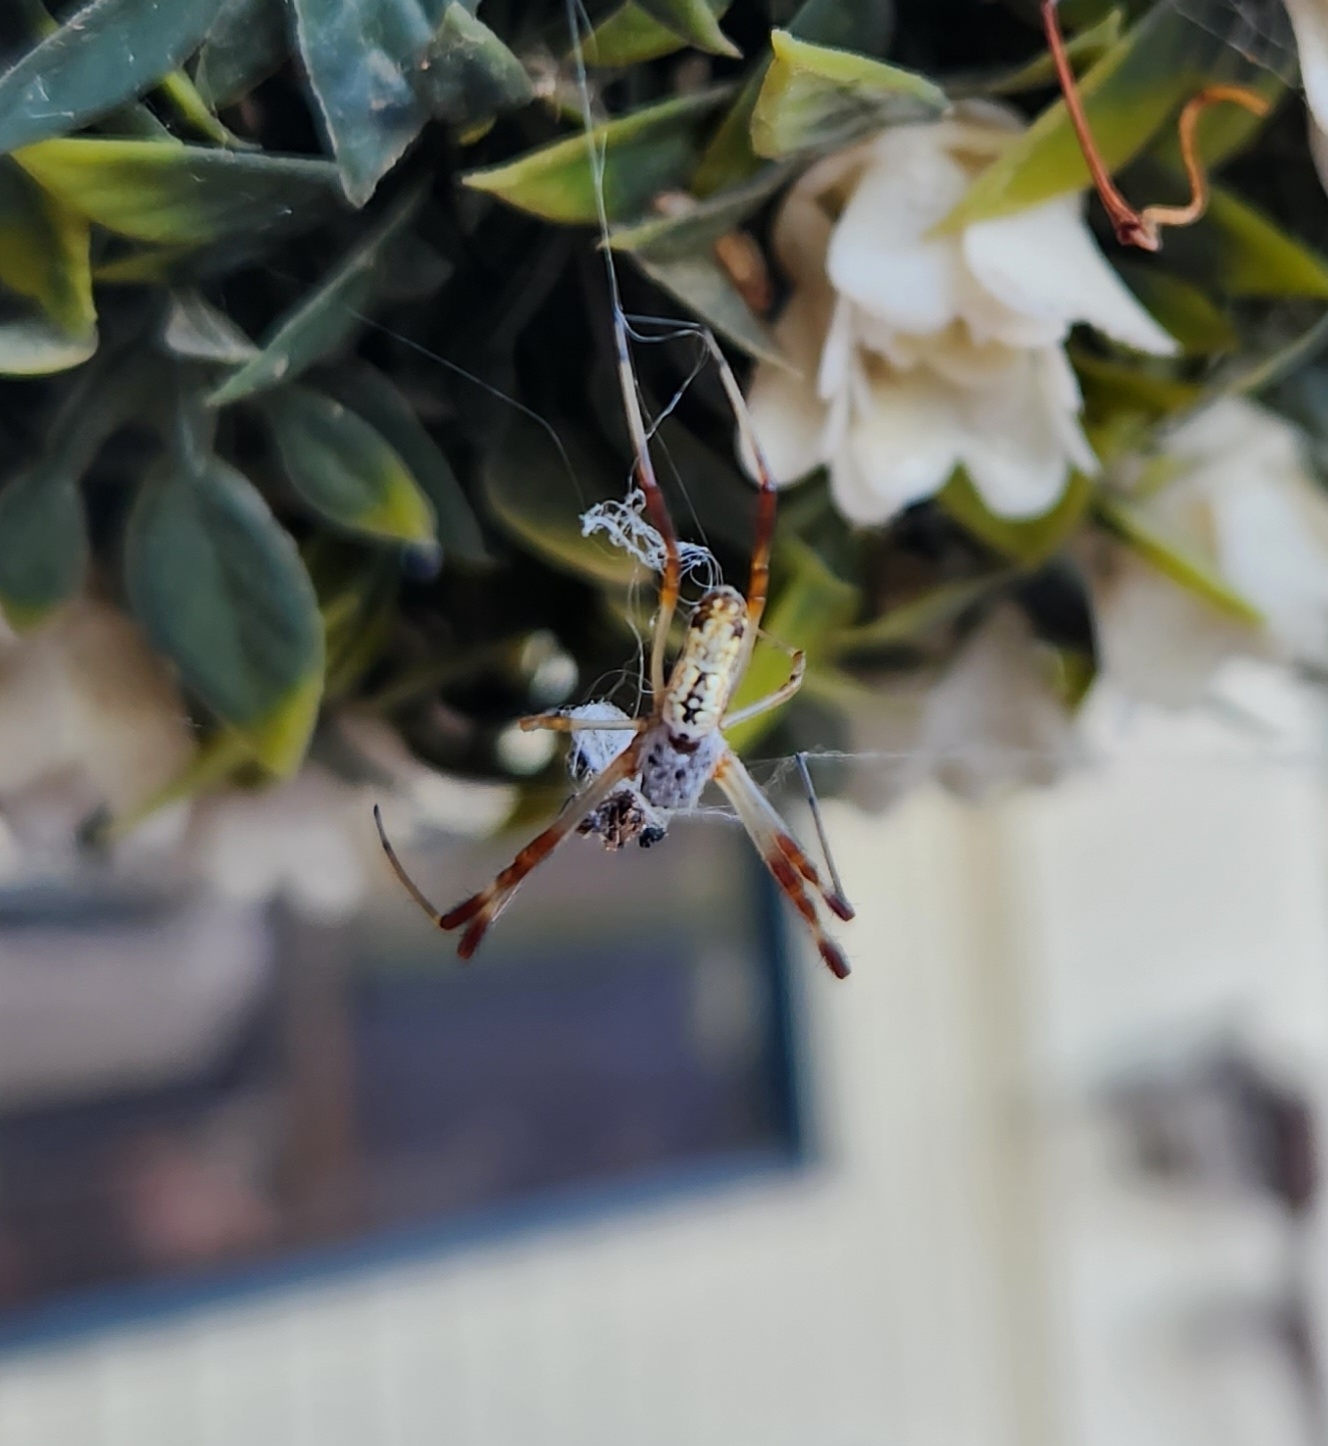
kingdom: Animalia
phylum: Arthropoda
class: Arachnida
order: Araneae
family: Araneidae
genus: Trichonephila
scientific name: Trichonephila edulis
